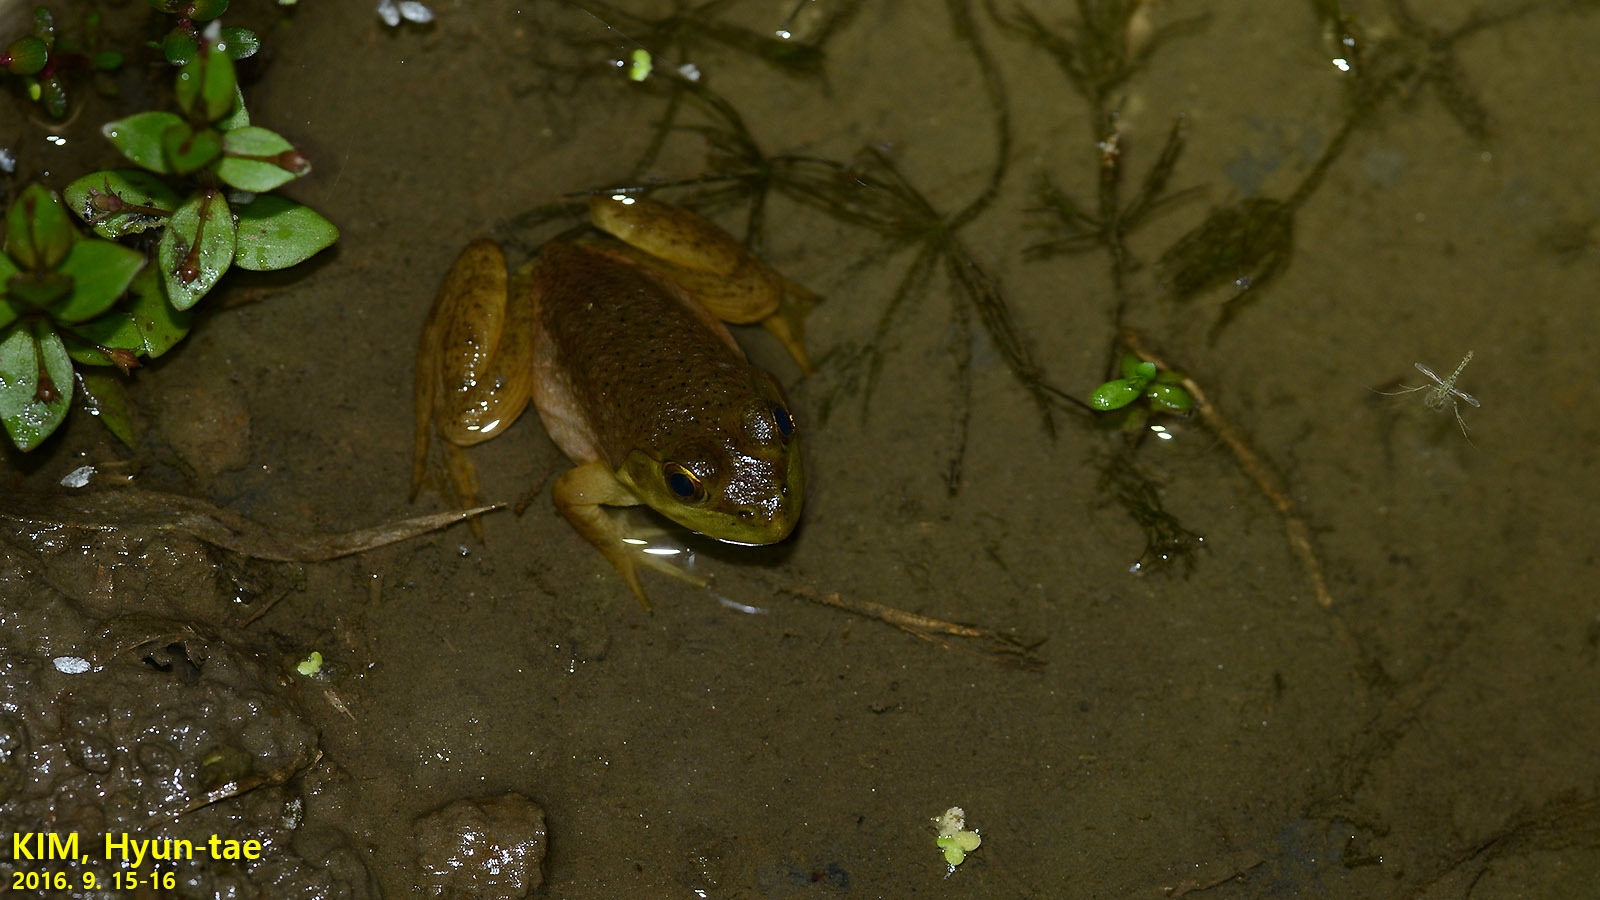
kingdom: Animalia
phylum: Chordata
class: Amphibia
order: Anura
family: Ranidae
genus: Pelophylax
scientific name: Pelophylax nigromaculatus
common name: Black-spotted pond frog
